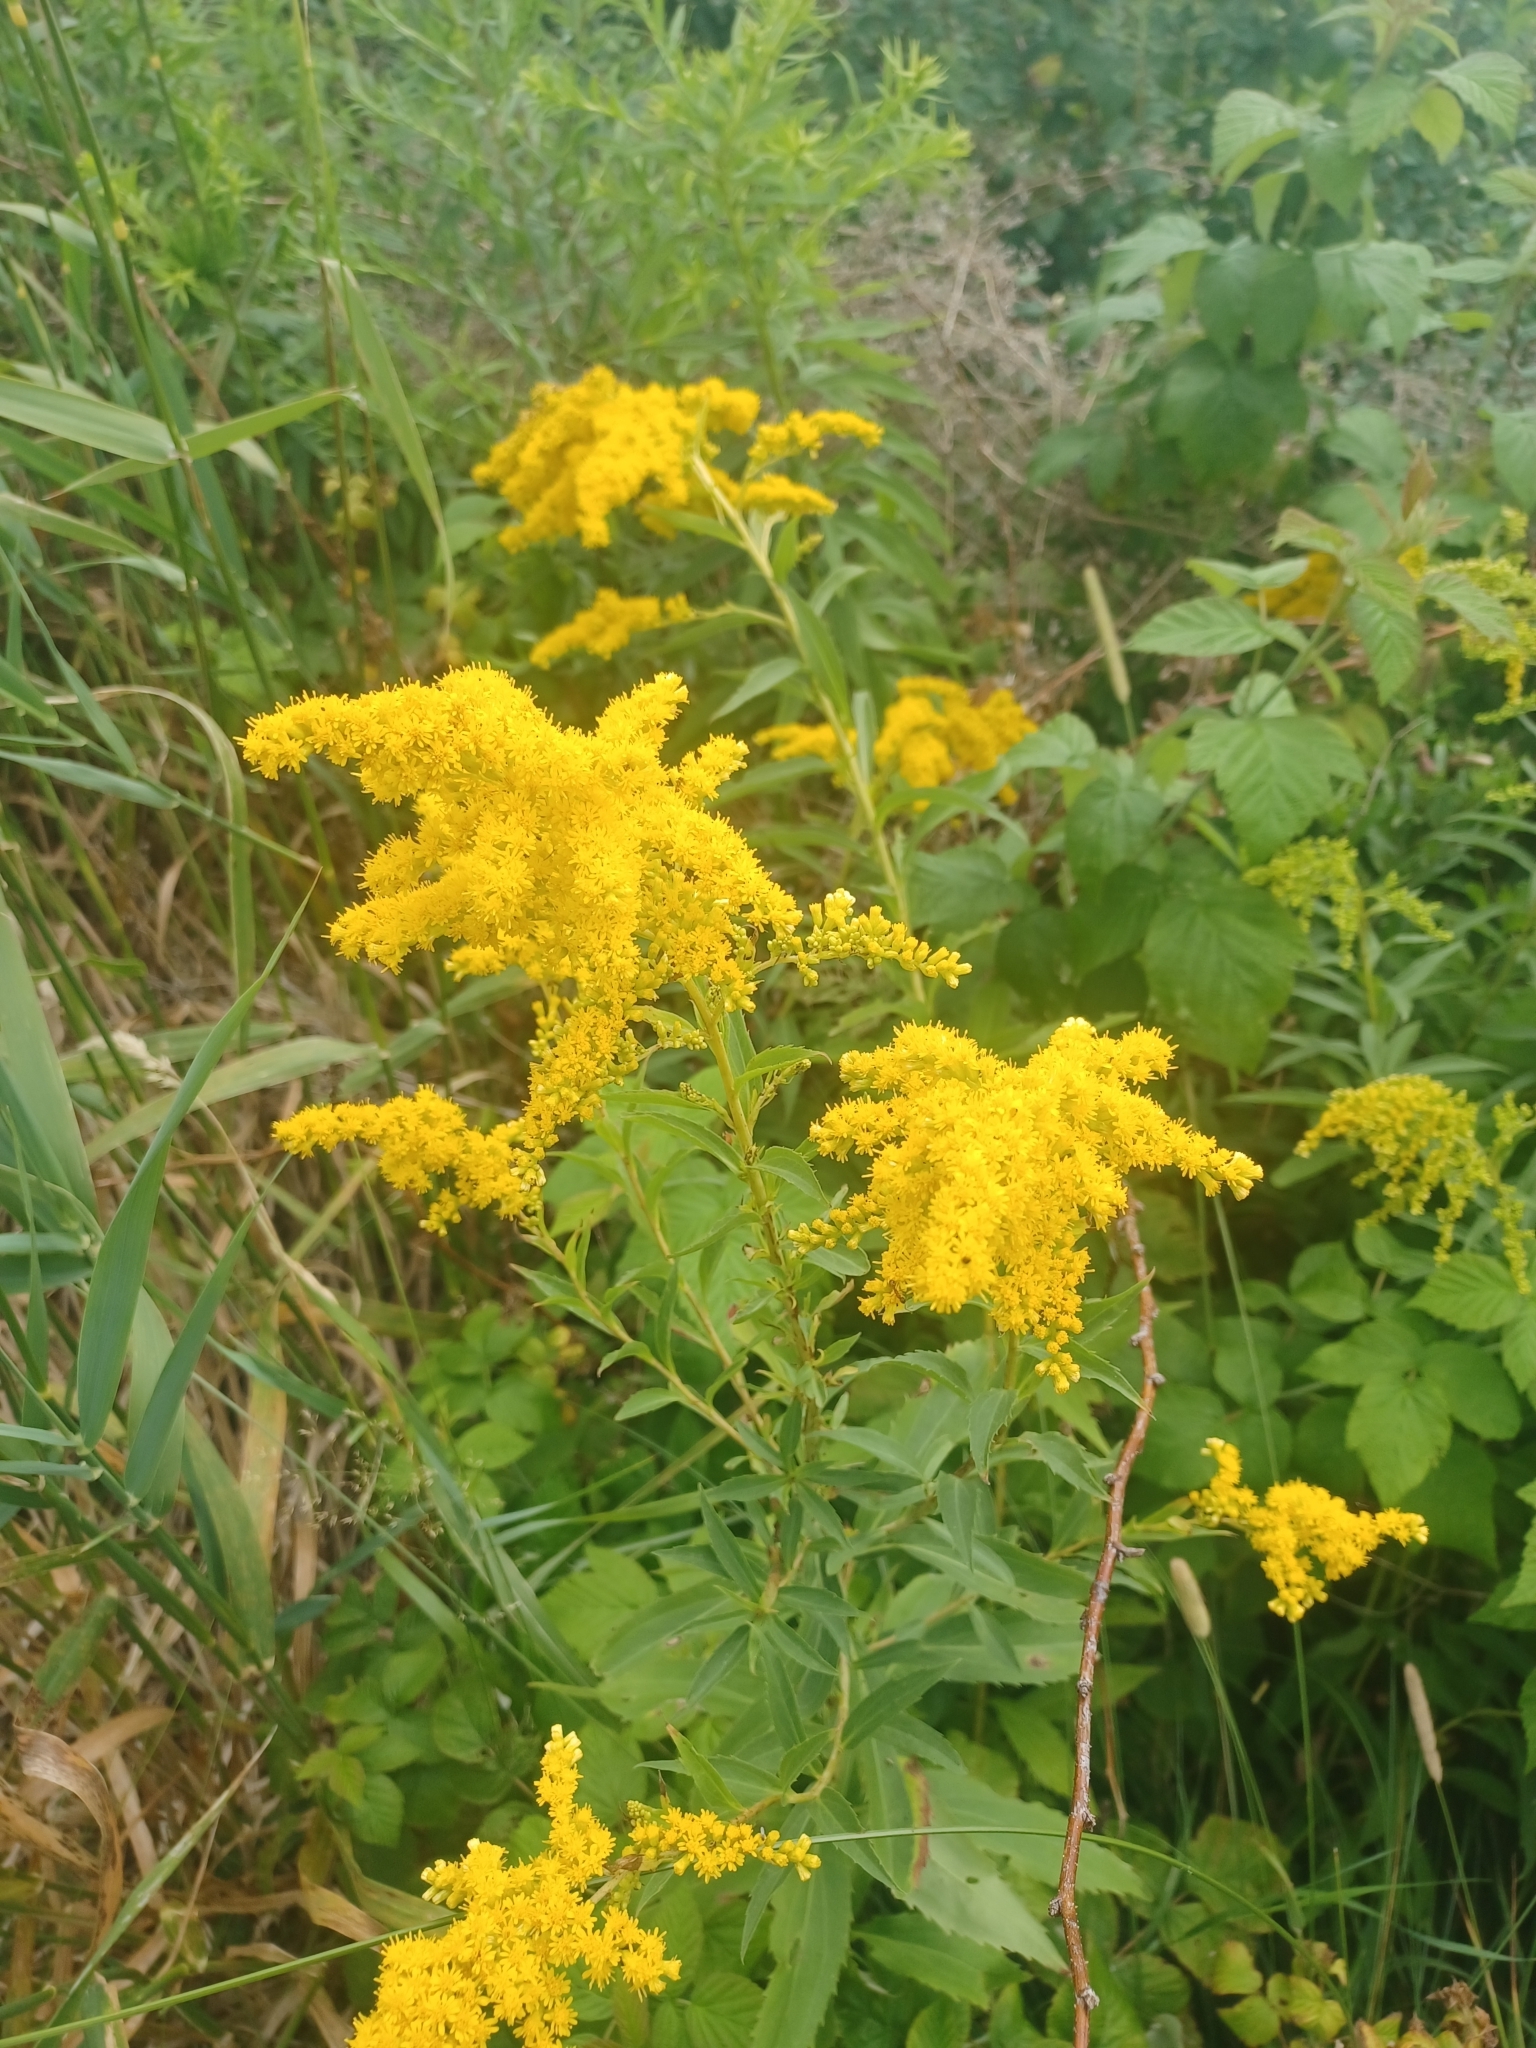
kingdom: Plantae
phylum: Tracheophyta
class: Magnoliopsida
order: Asterales
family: Asteraceae
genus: Solidago
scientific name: Solidago gigantea
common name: Giant goldenrod
